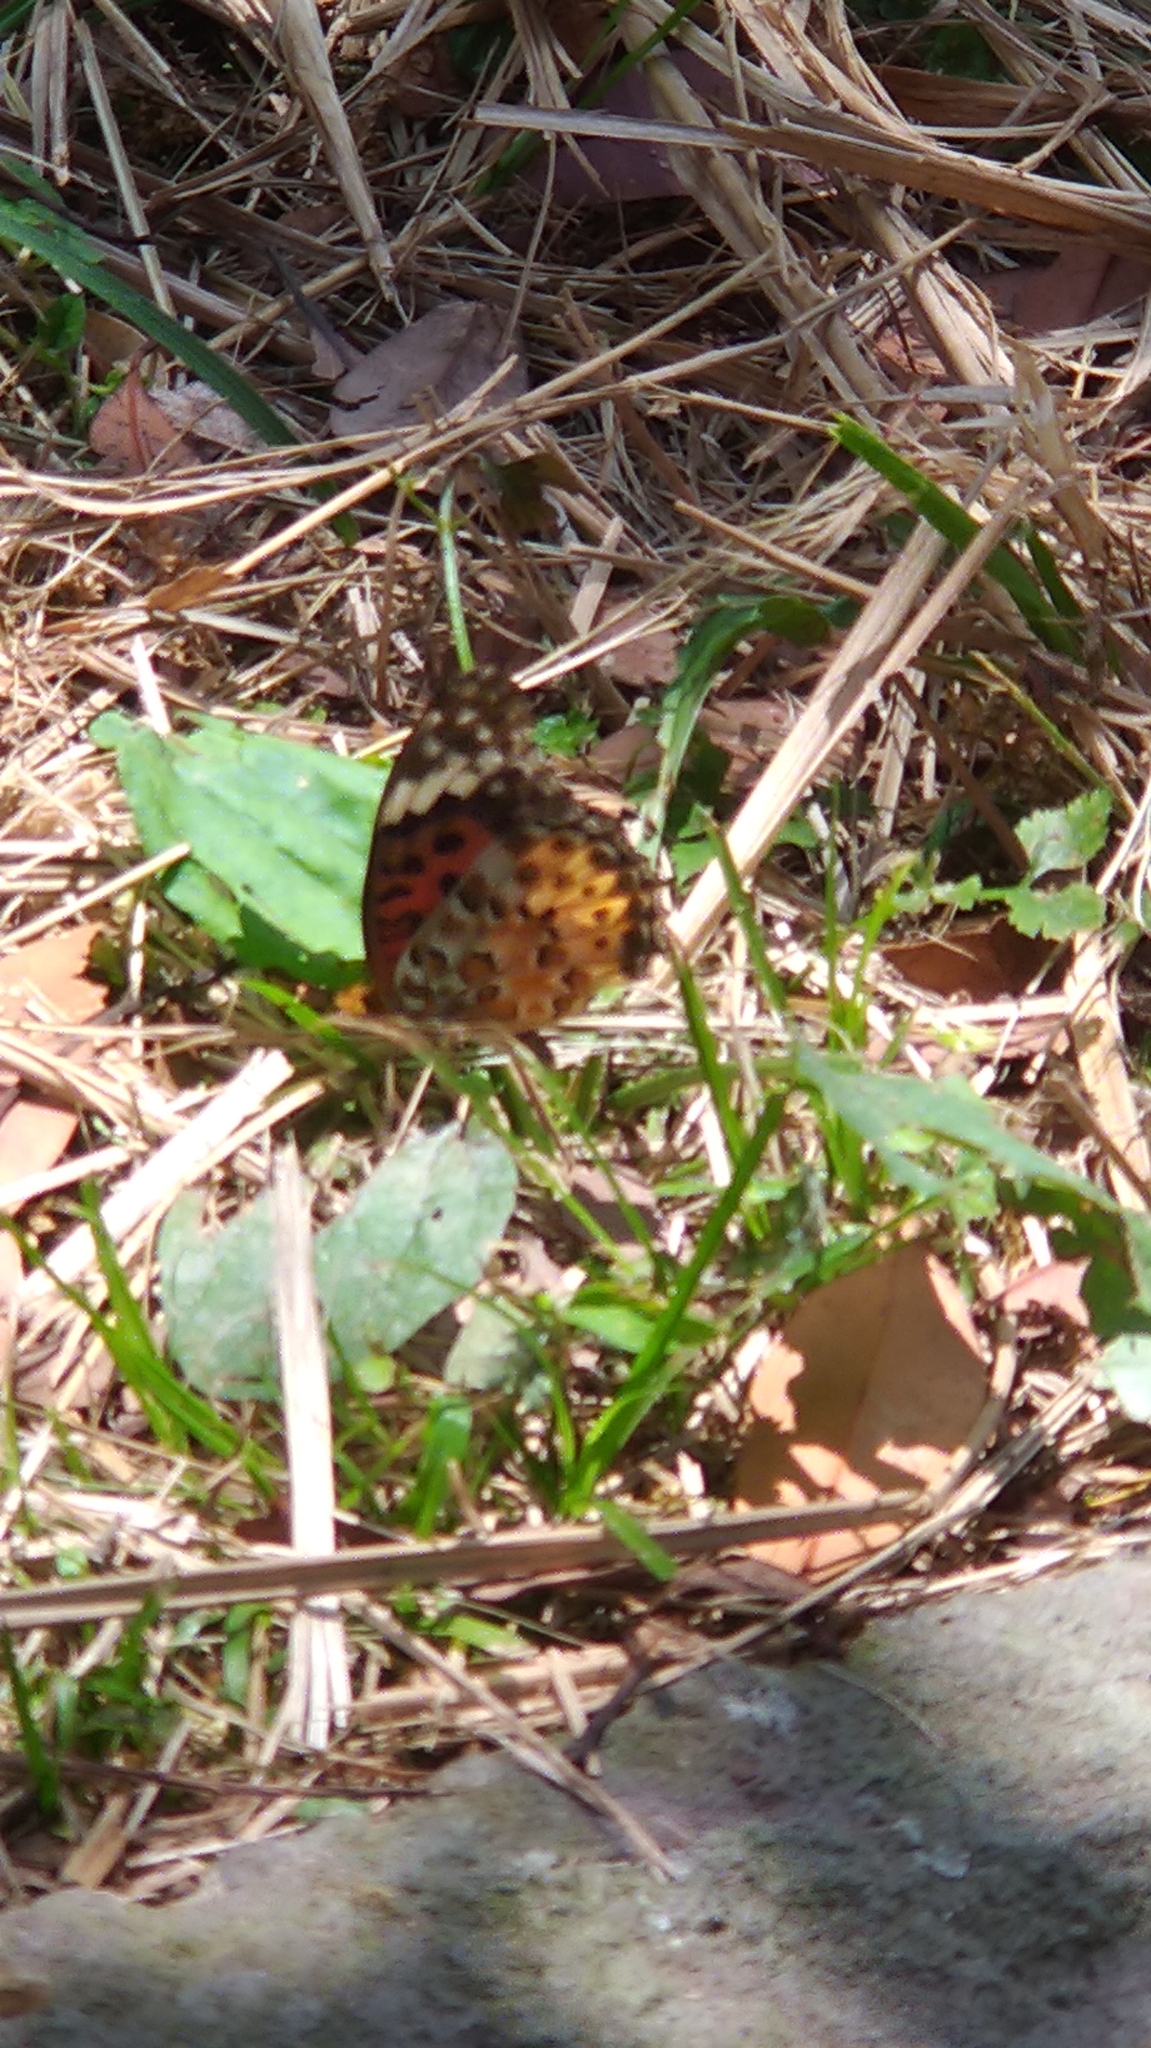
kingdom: Animalia
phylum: Arthropoda
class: Insecta
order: Lepidoptera
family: Nymphalidae
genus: Argynnis
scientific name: Argynnis hyperbius
